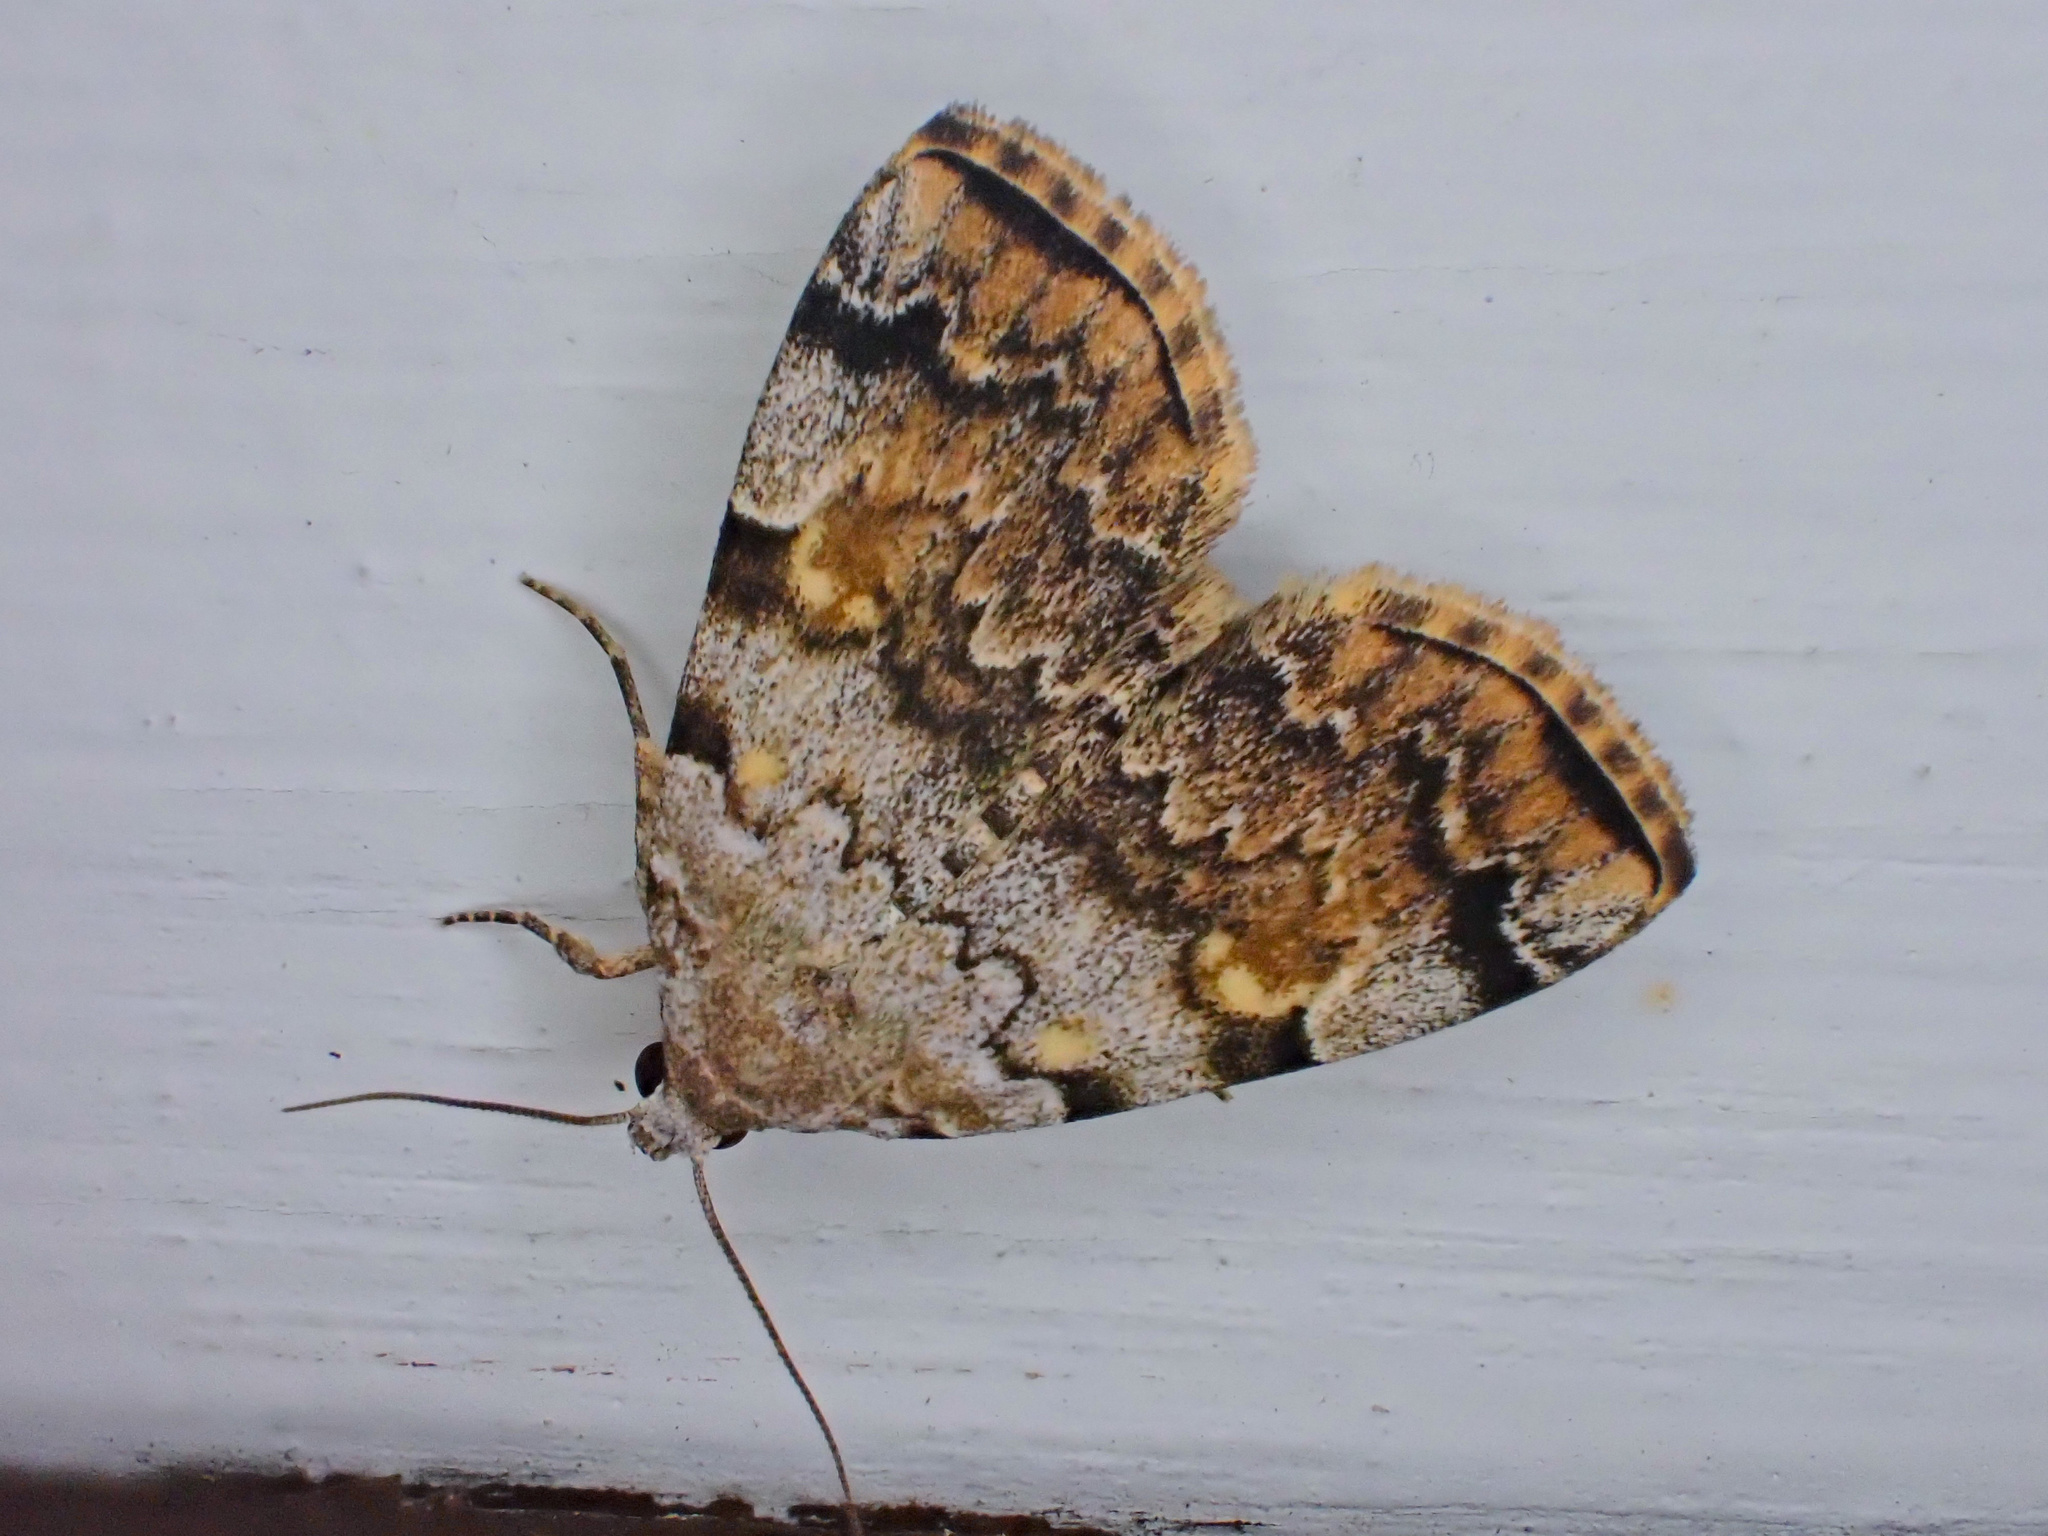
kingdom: Animalia
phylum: Arthropoda
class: Insecta
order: Lepidoptera
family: Erebidae
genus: Idia
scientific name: Idia americalis
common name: American idia moth
